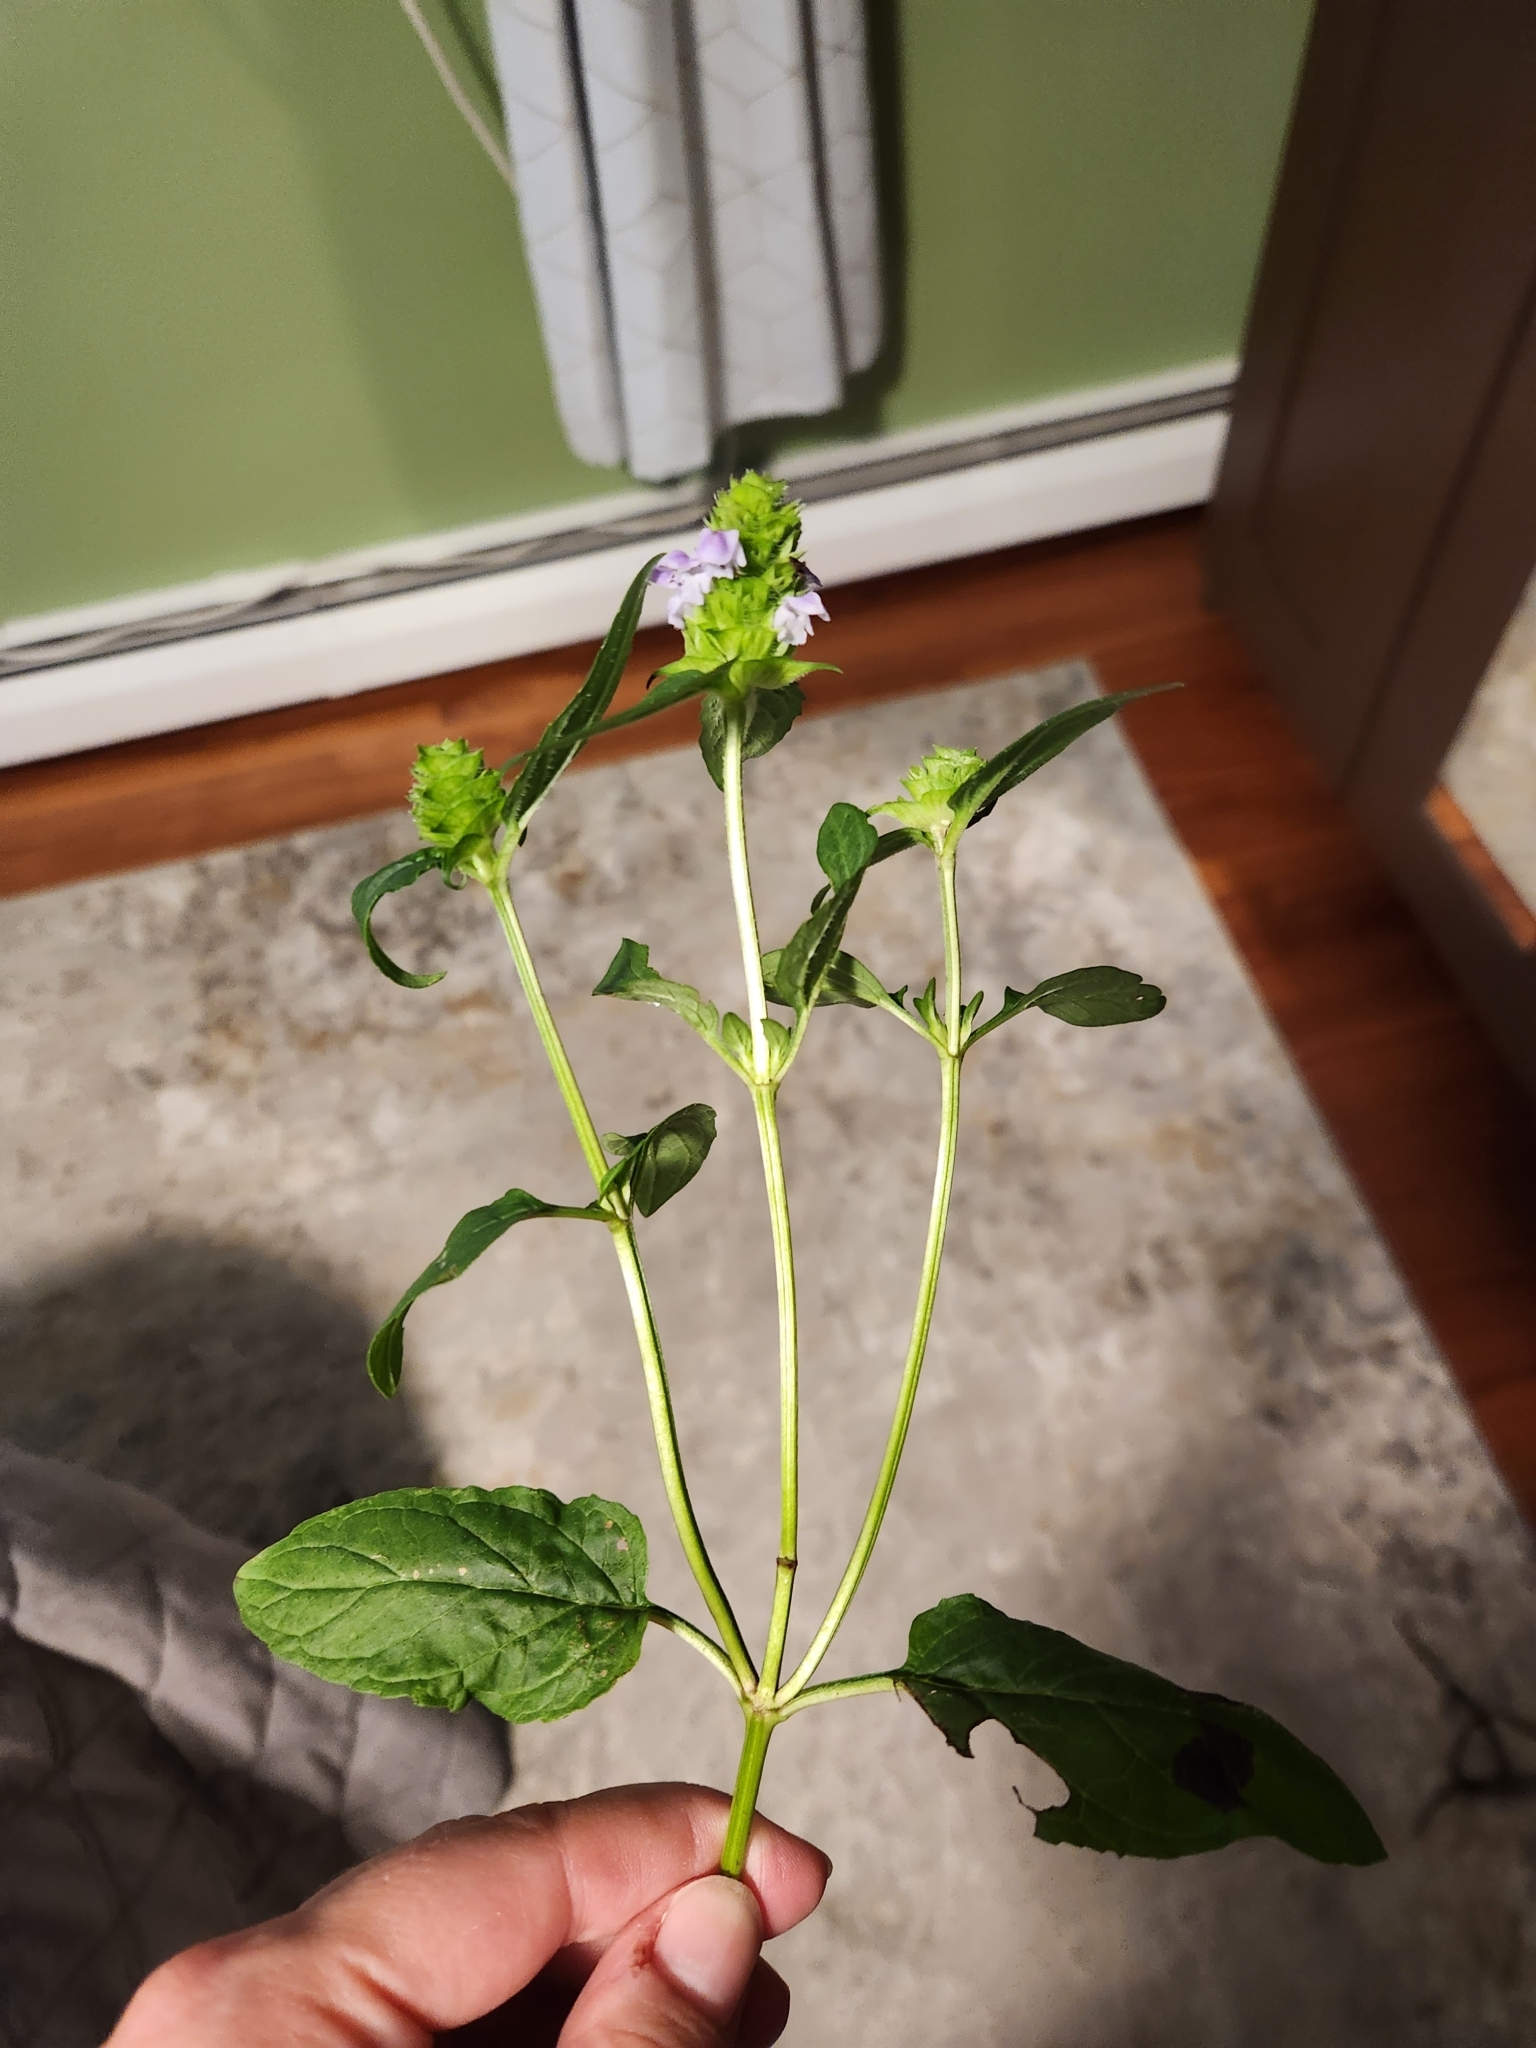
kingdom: Plantae
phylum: Tracheophyta
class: Magnoliopsida
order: Lamiales
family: Lamiaceae
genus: Prunella
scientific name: Prunella vulgaris
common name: Heal-all
